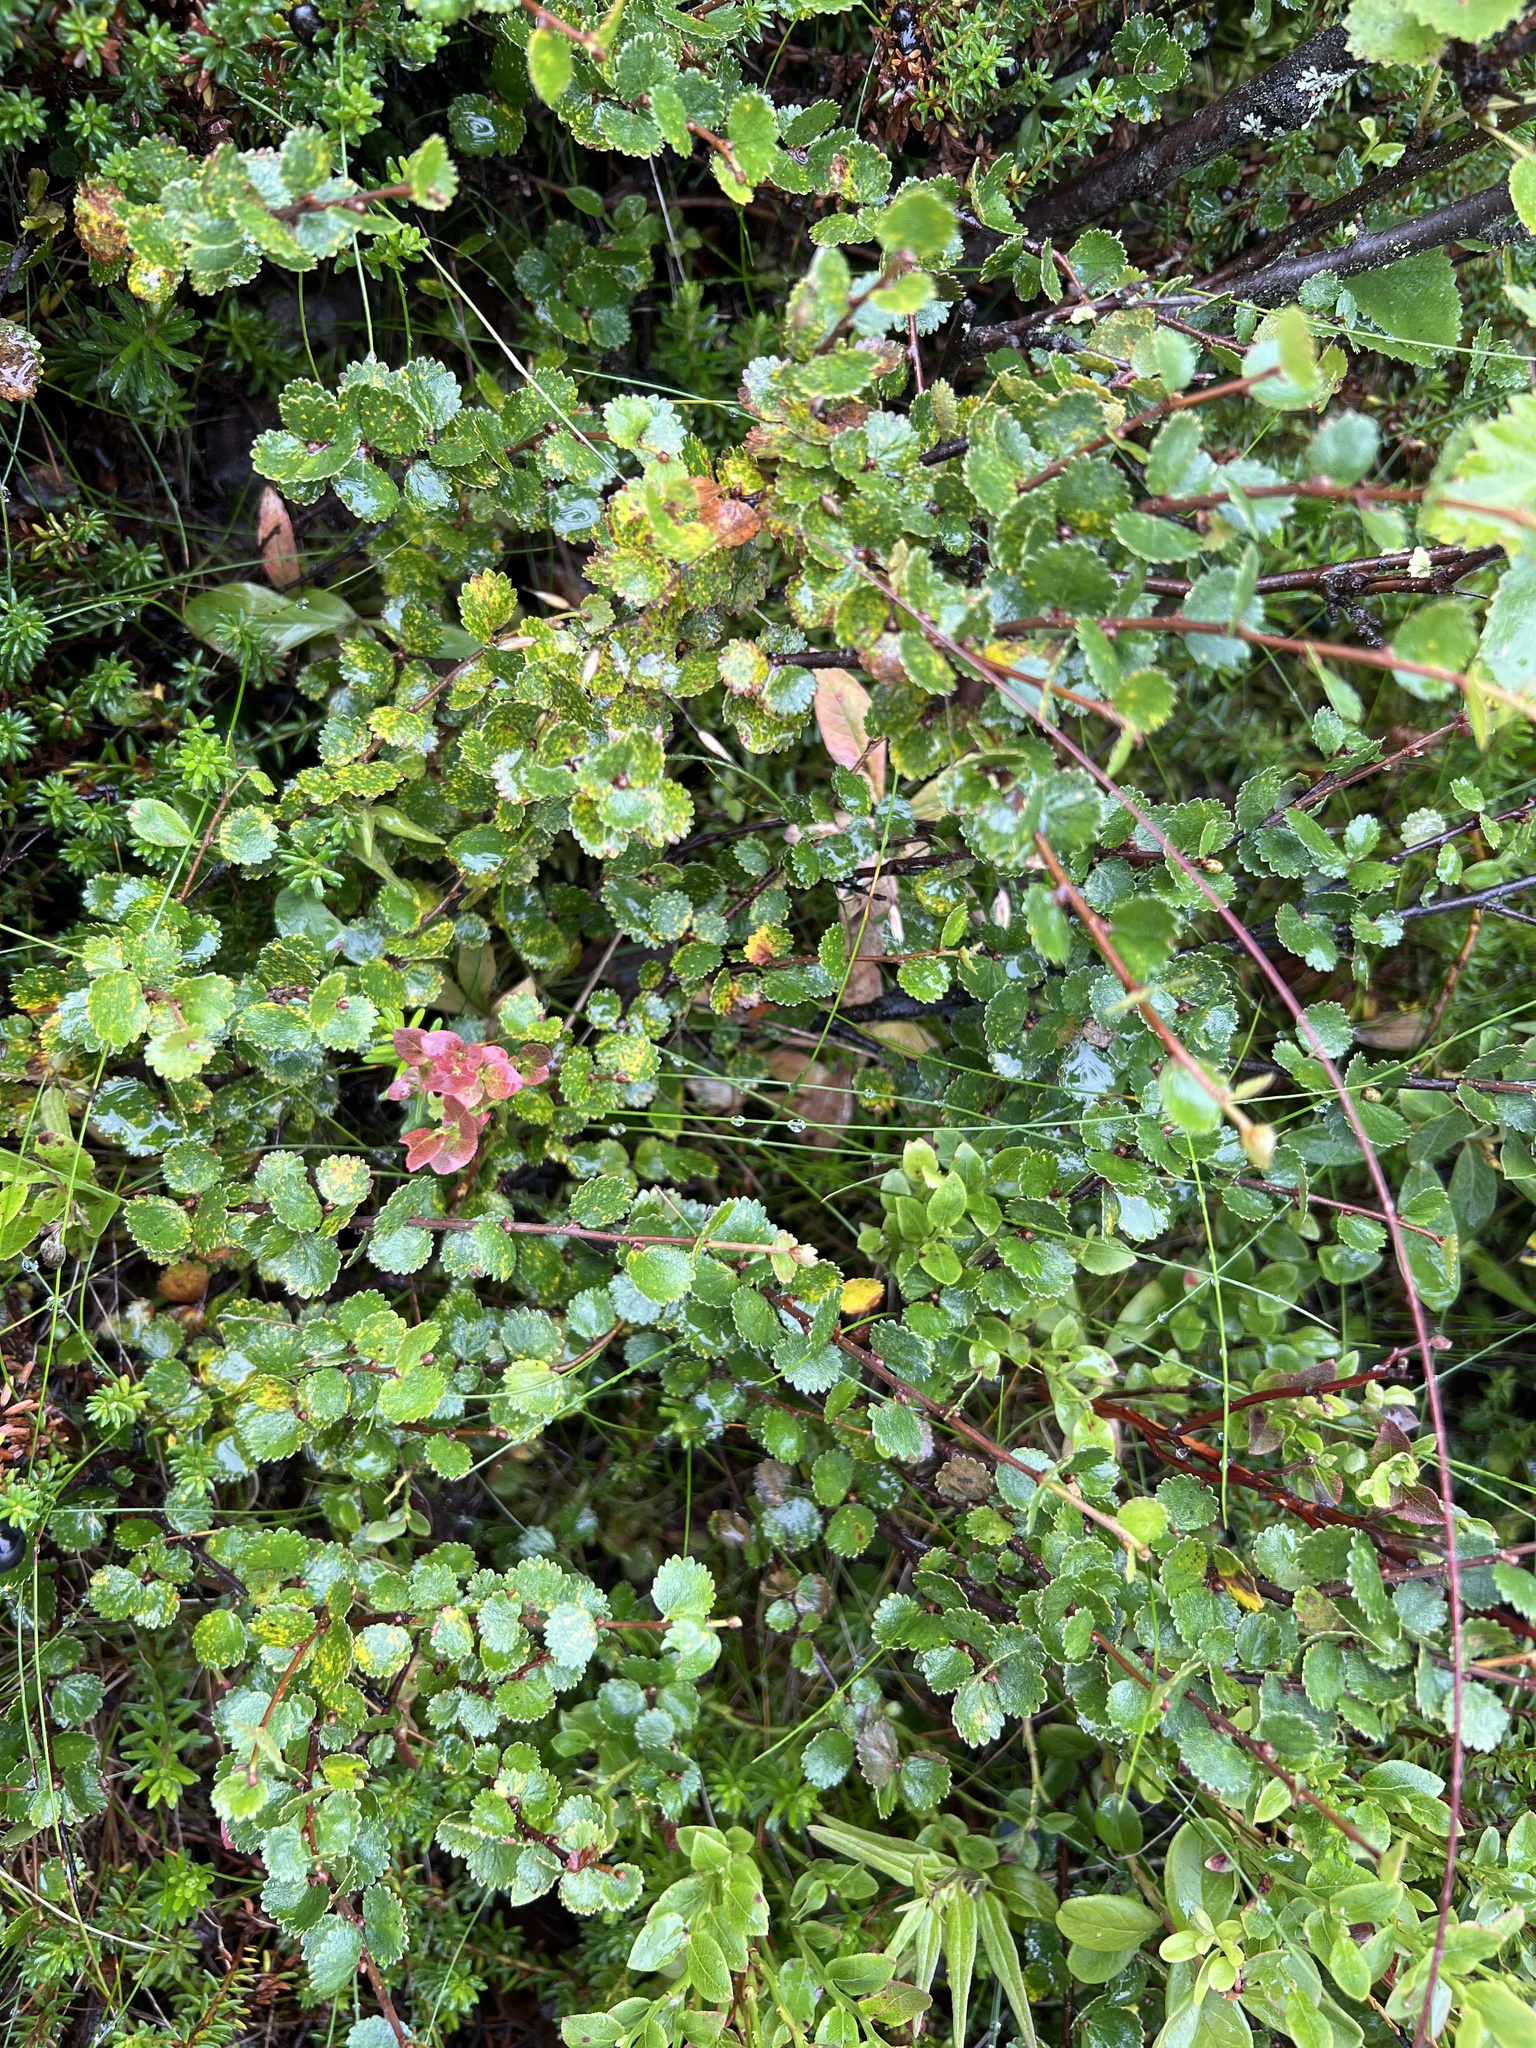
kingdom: Plantae
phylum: Tracheophyta
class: Magnoliopsida
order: Fagales
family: Betulaceae
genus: Betula
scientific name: Betula nana
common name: Arctic dwarf birch
